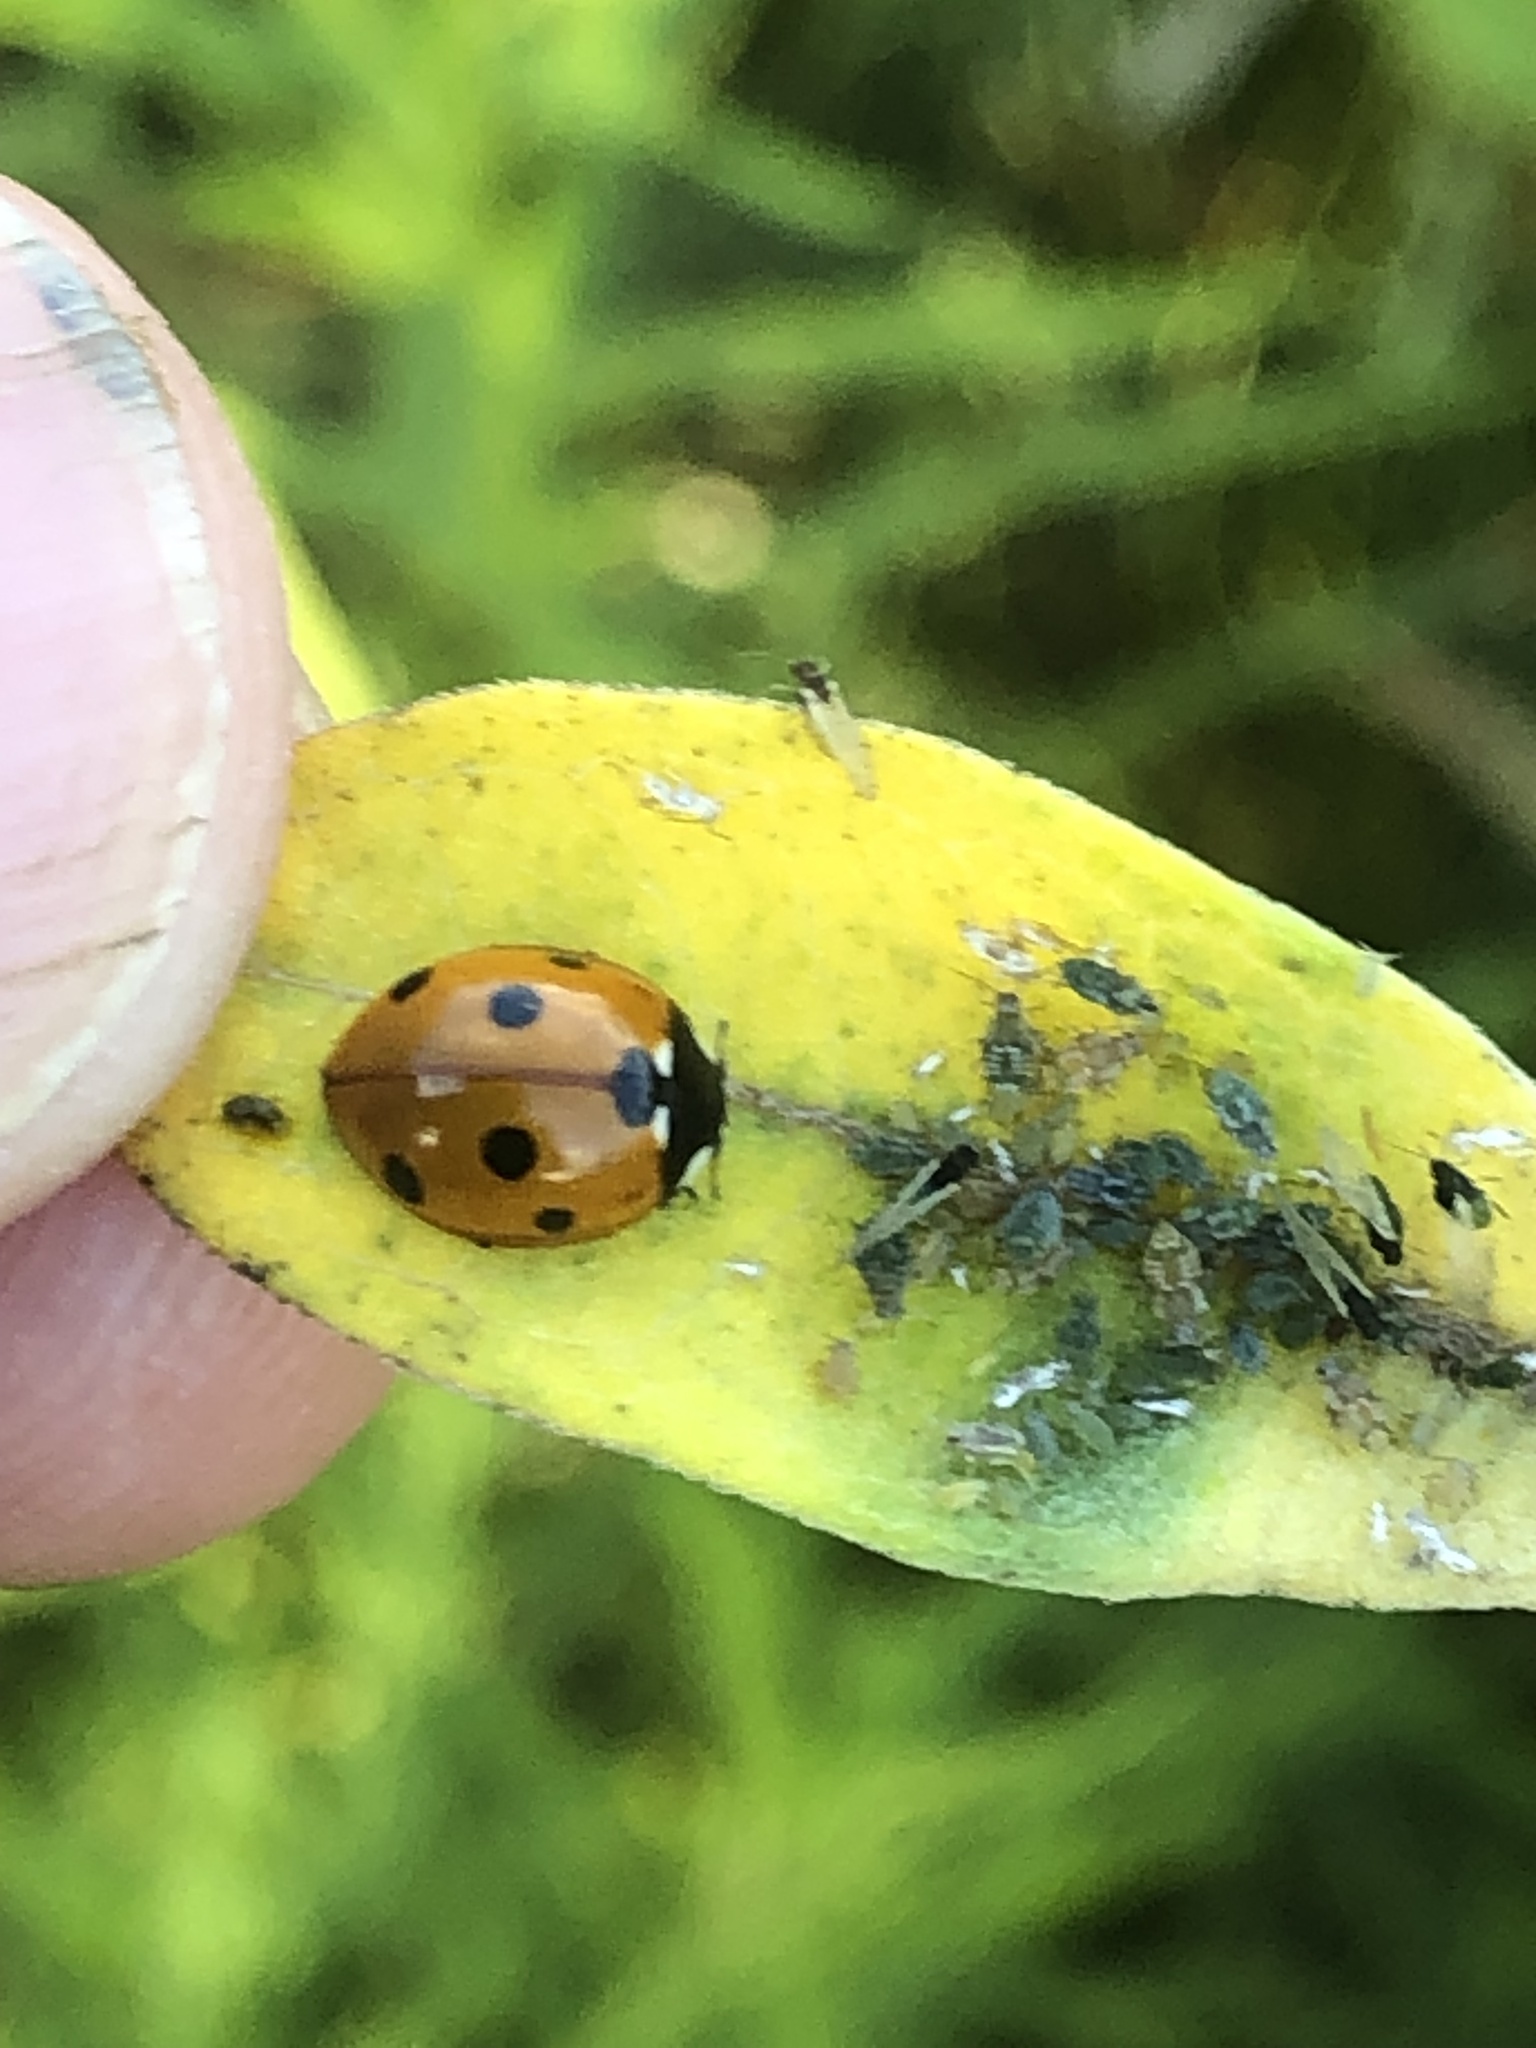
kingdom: Animalia
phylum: Arthropoda
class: Insecta
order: Coleoptera
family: Coccinellidae
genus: Coccinella
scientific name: Coccinella septempunctata
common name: Sevenspotted lady beetle
